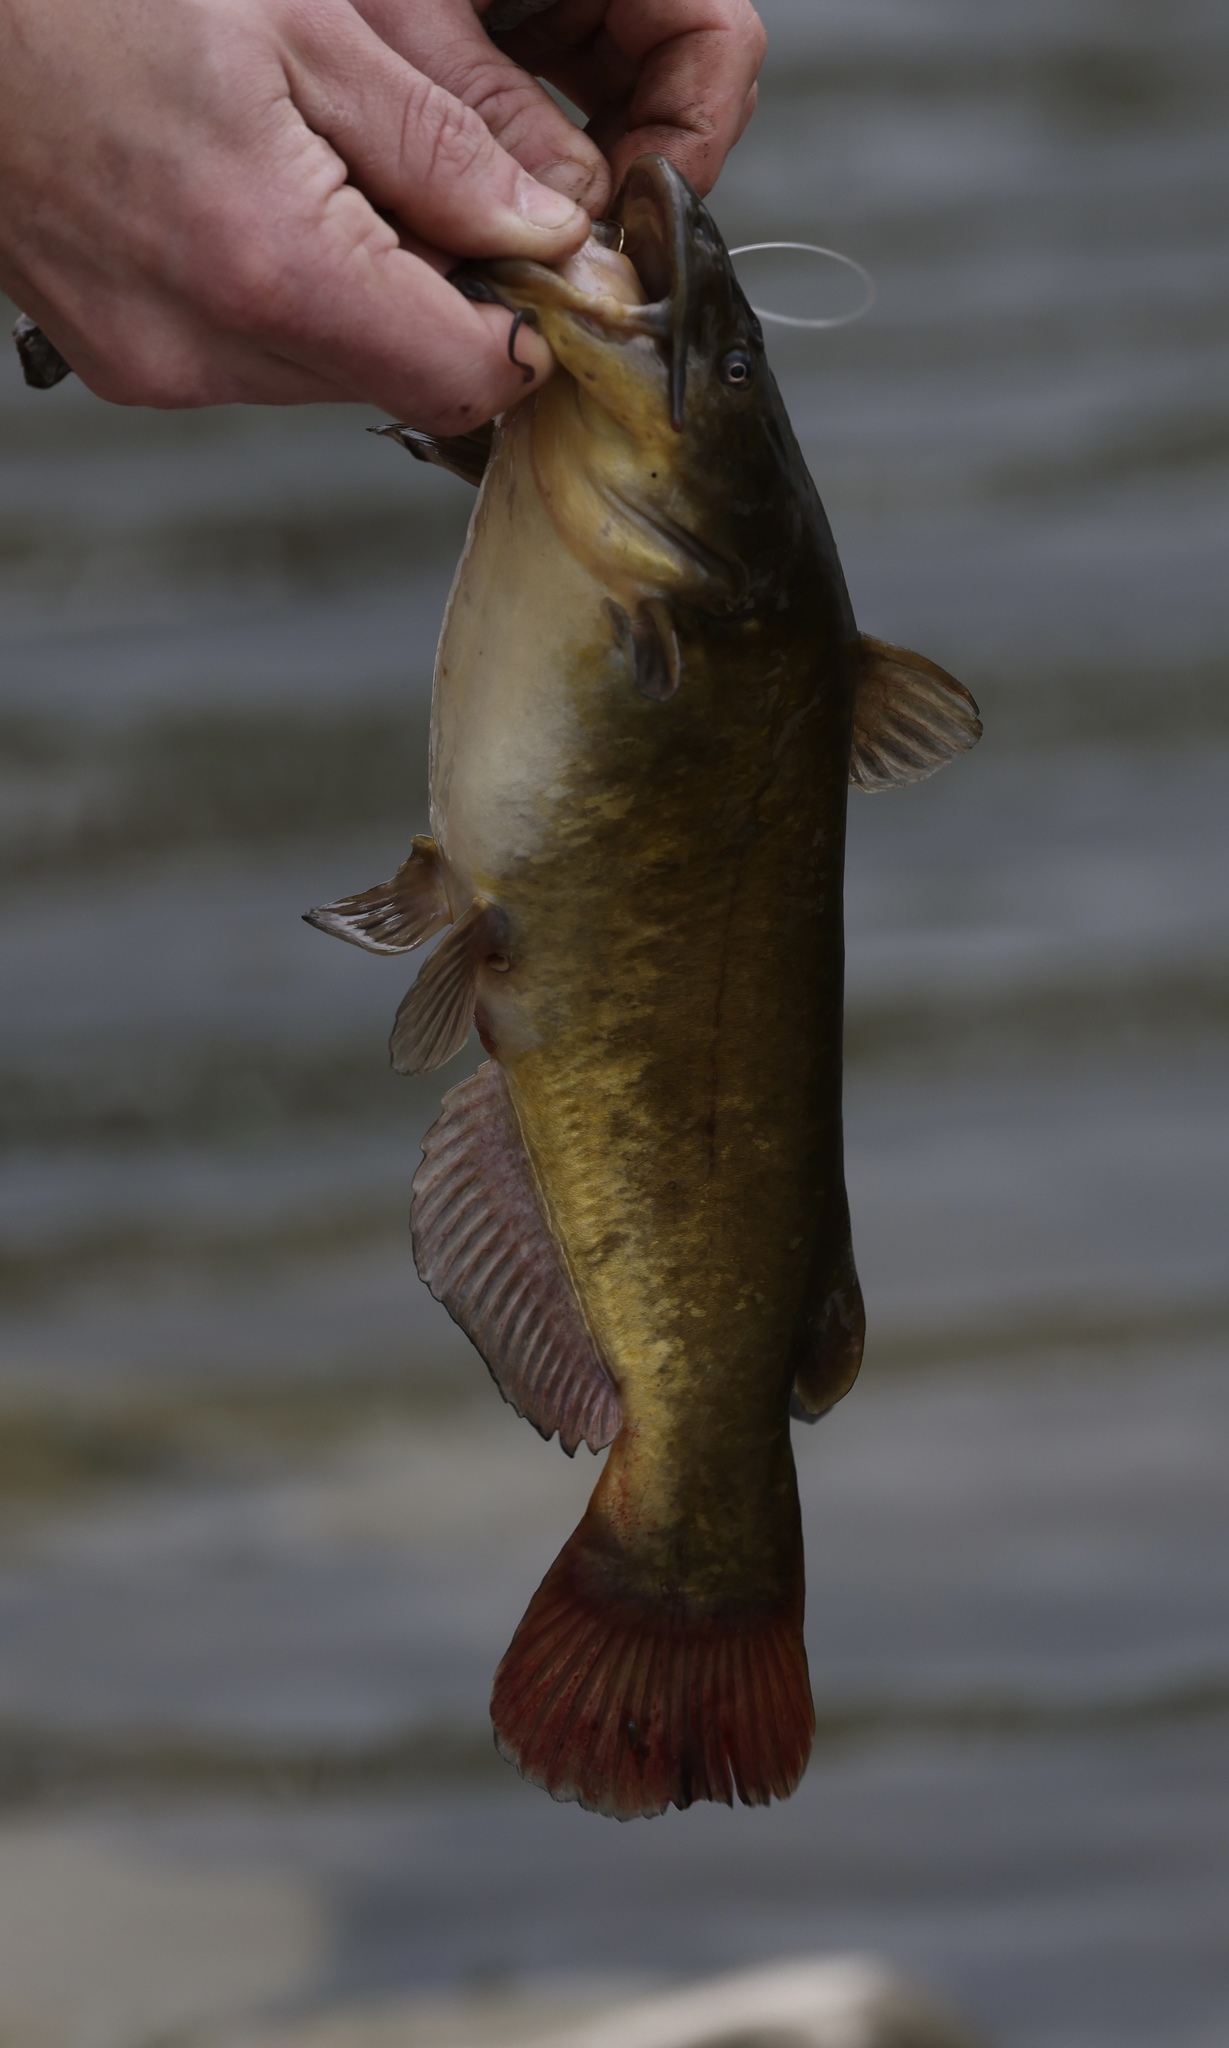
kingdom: Animalia
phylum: Chordata
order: Siluriformes
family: Ictaluridae
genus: Ameiurus
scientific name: Ameiurus nebulosus
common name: Brown bullhead
